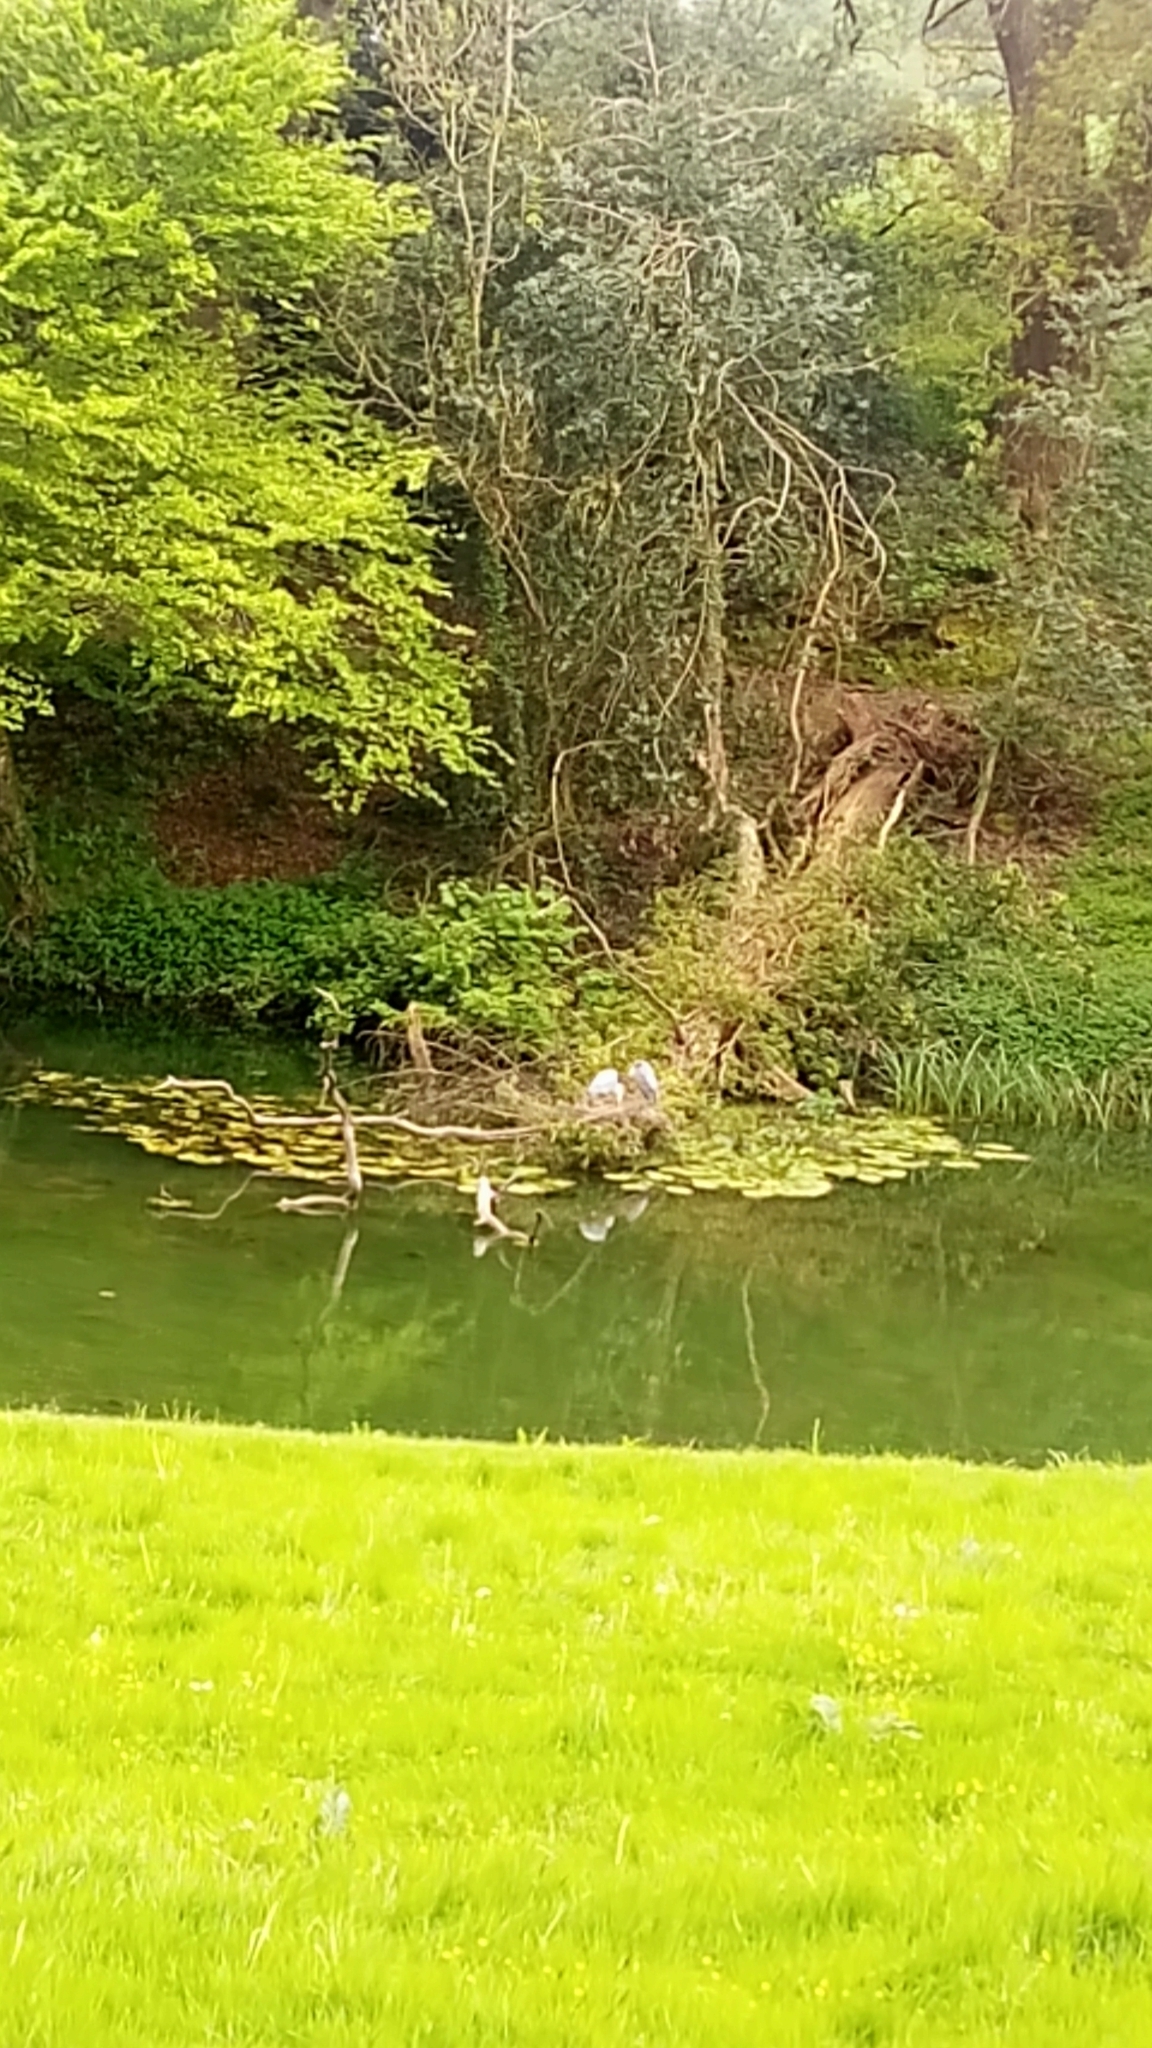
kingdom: Animalia
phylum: Chordata
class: Aves
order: Pelecaniformes
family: Ardeidae
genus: Ardea
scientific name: Ardea cinerea
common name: Grey heron
